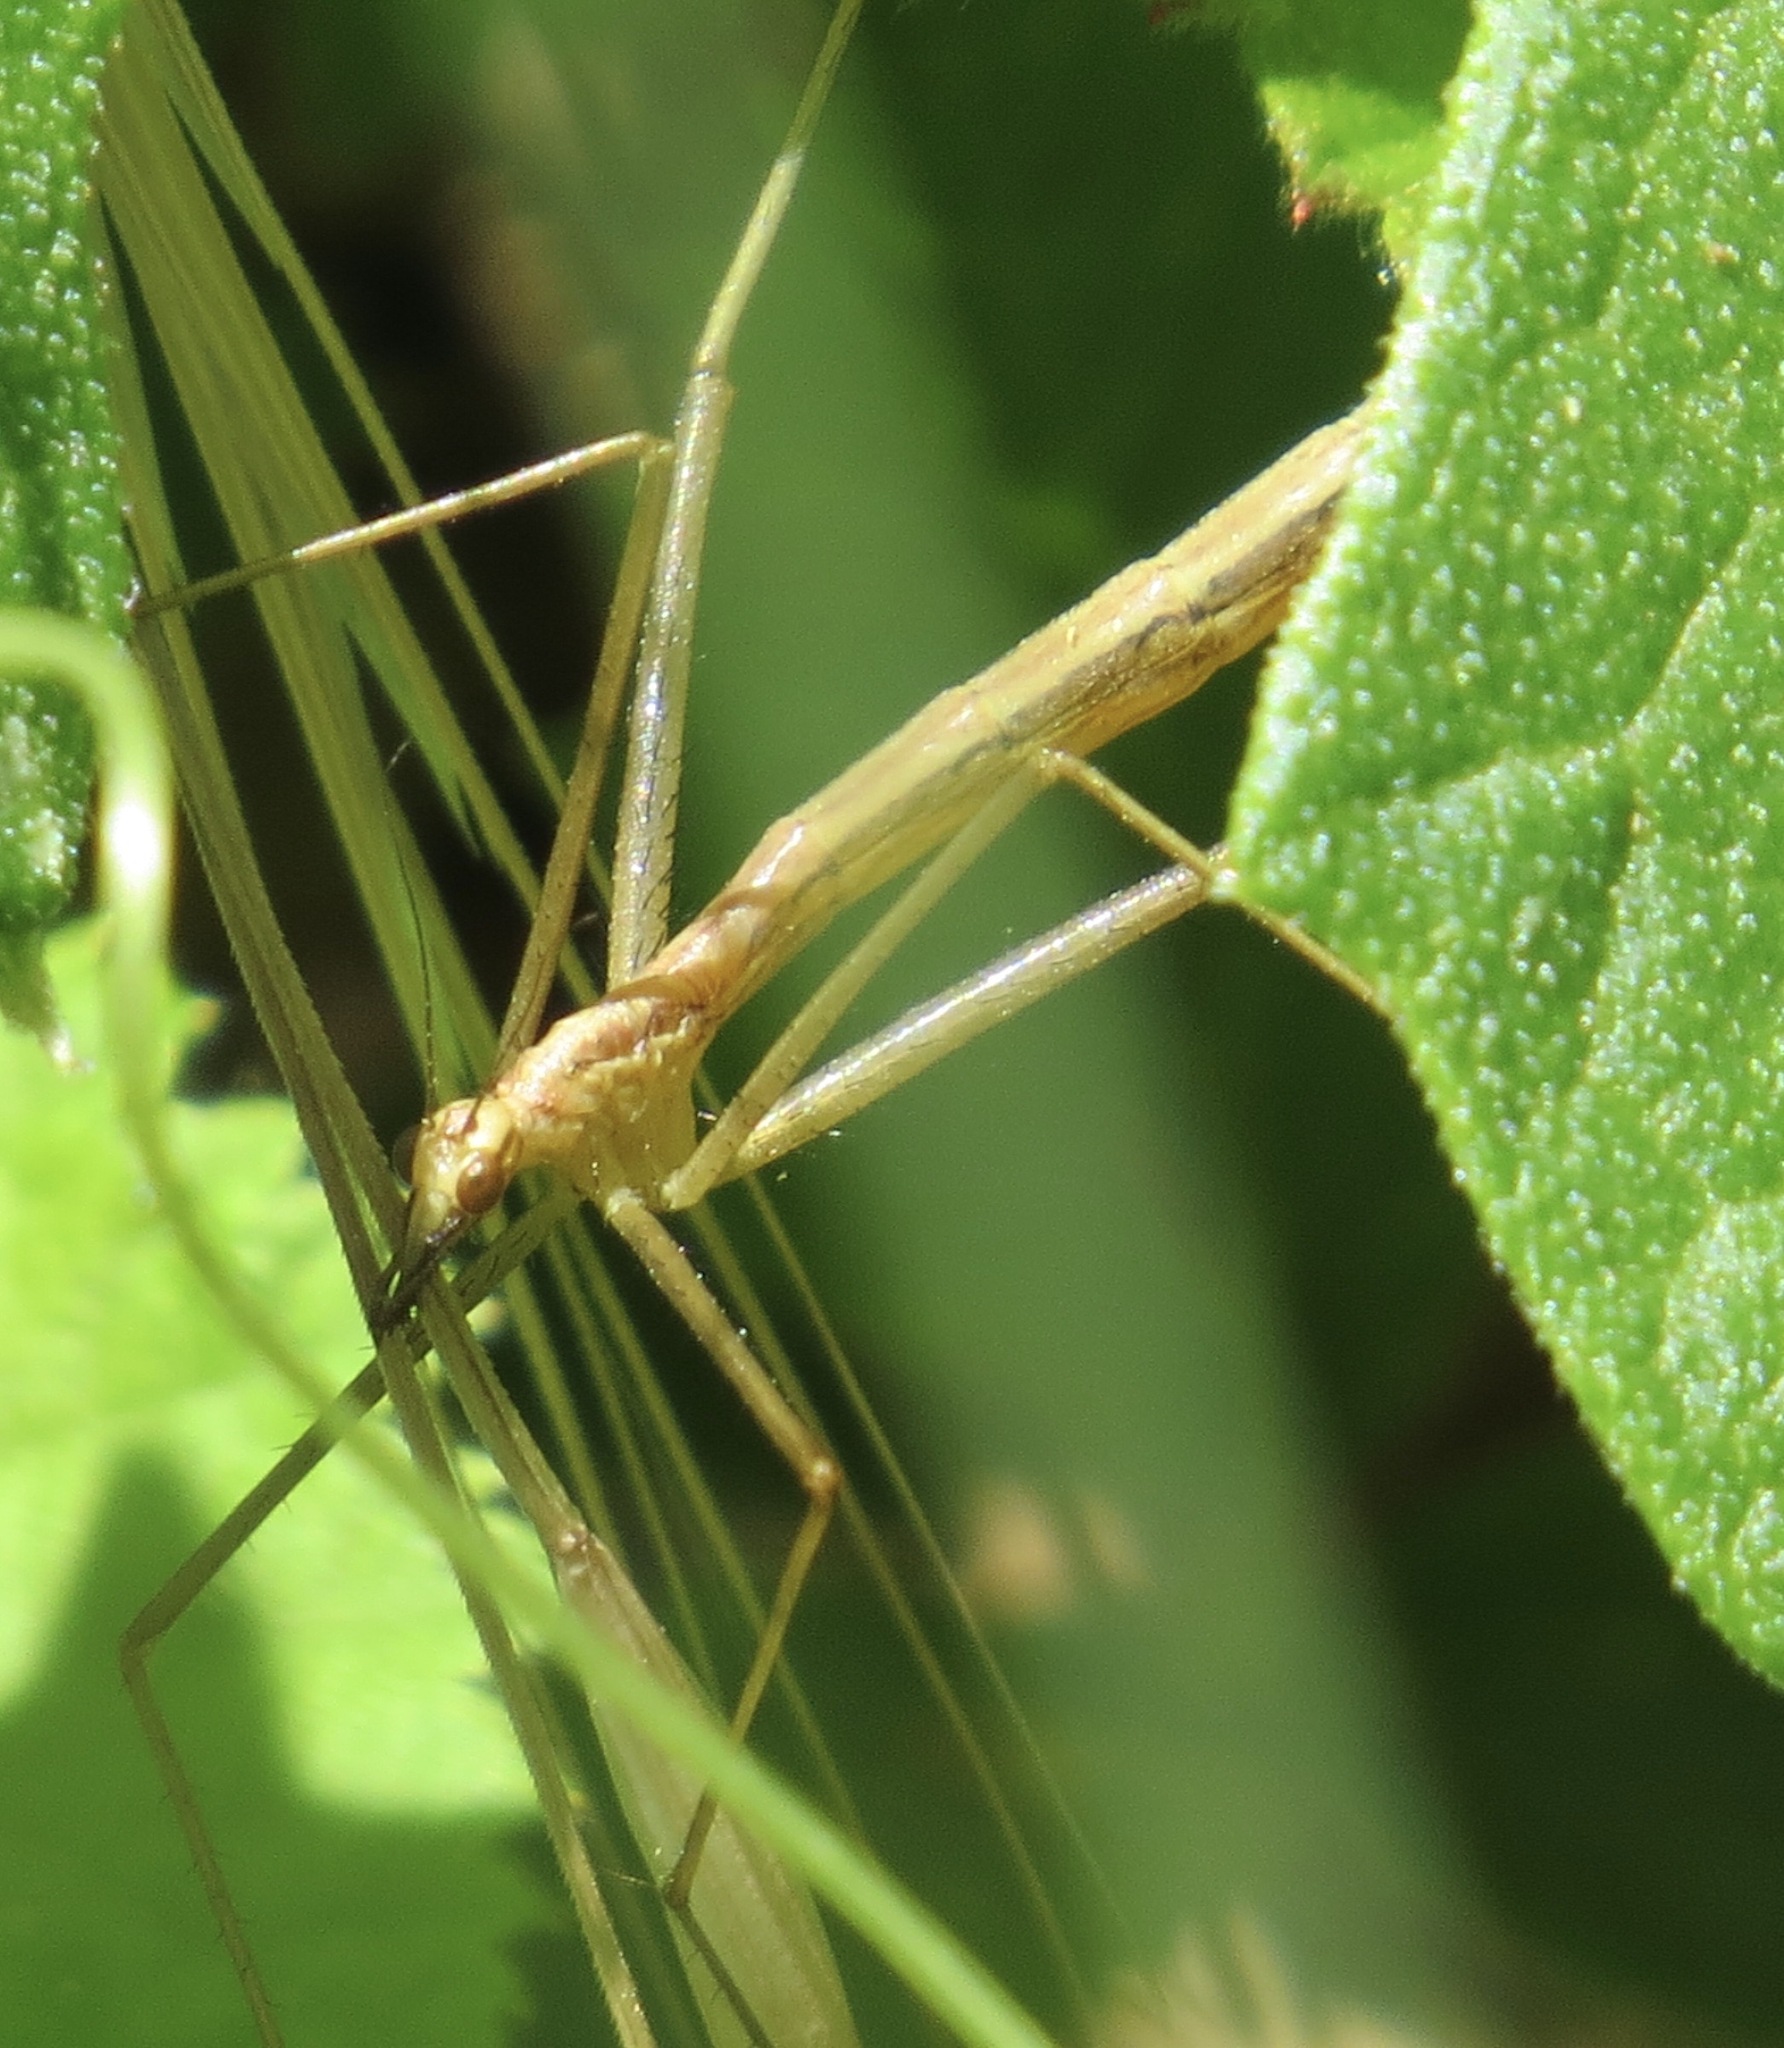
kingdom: Animalia
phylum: Arthropoda
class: Insecta
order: Mecoptera
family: Bittacidae
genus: Apterobittacus
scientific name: Apterobittacus apterus
